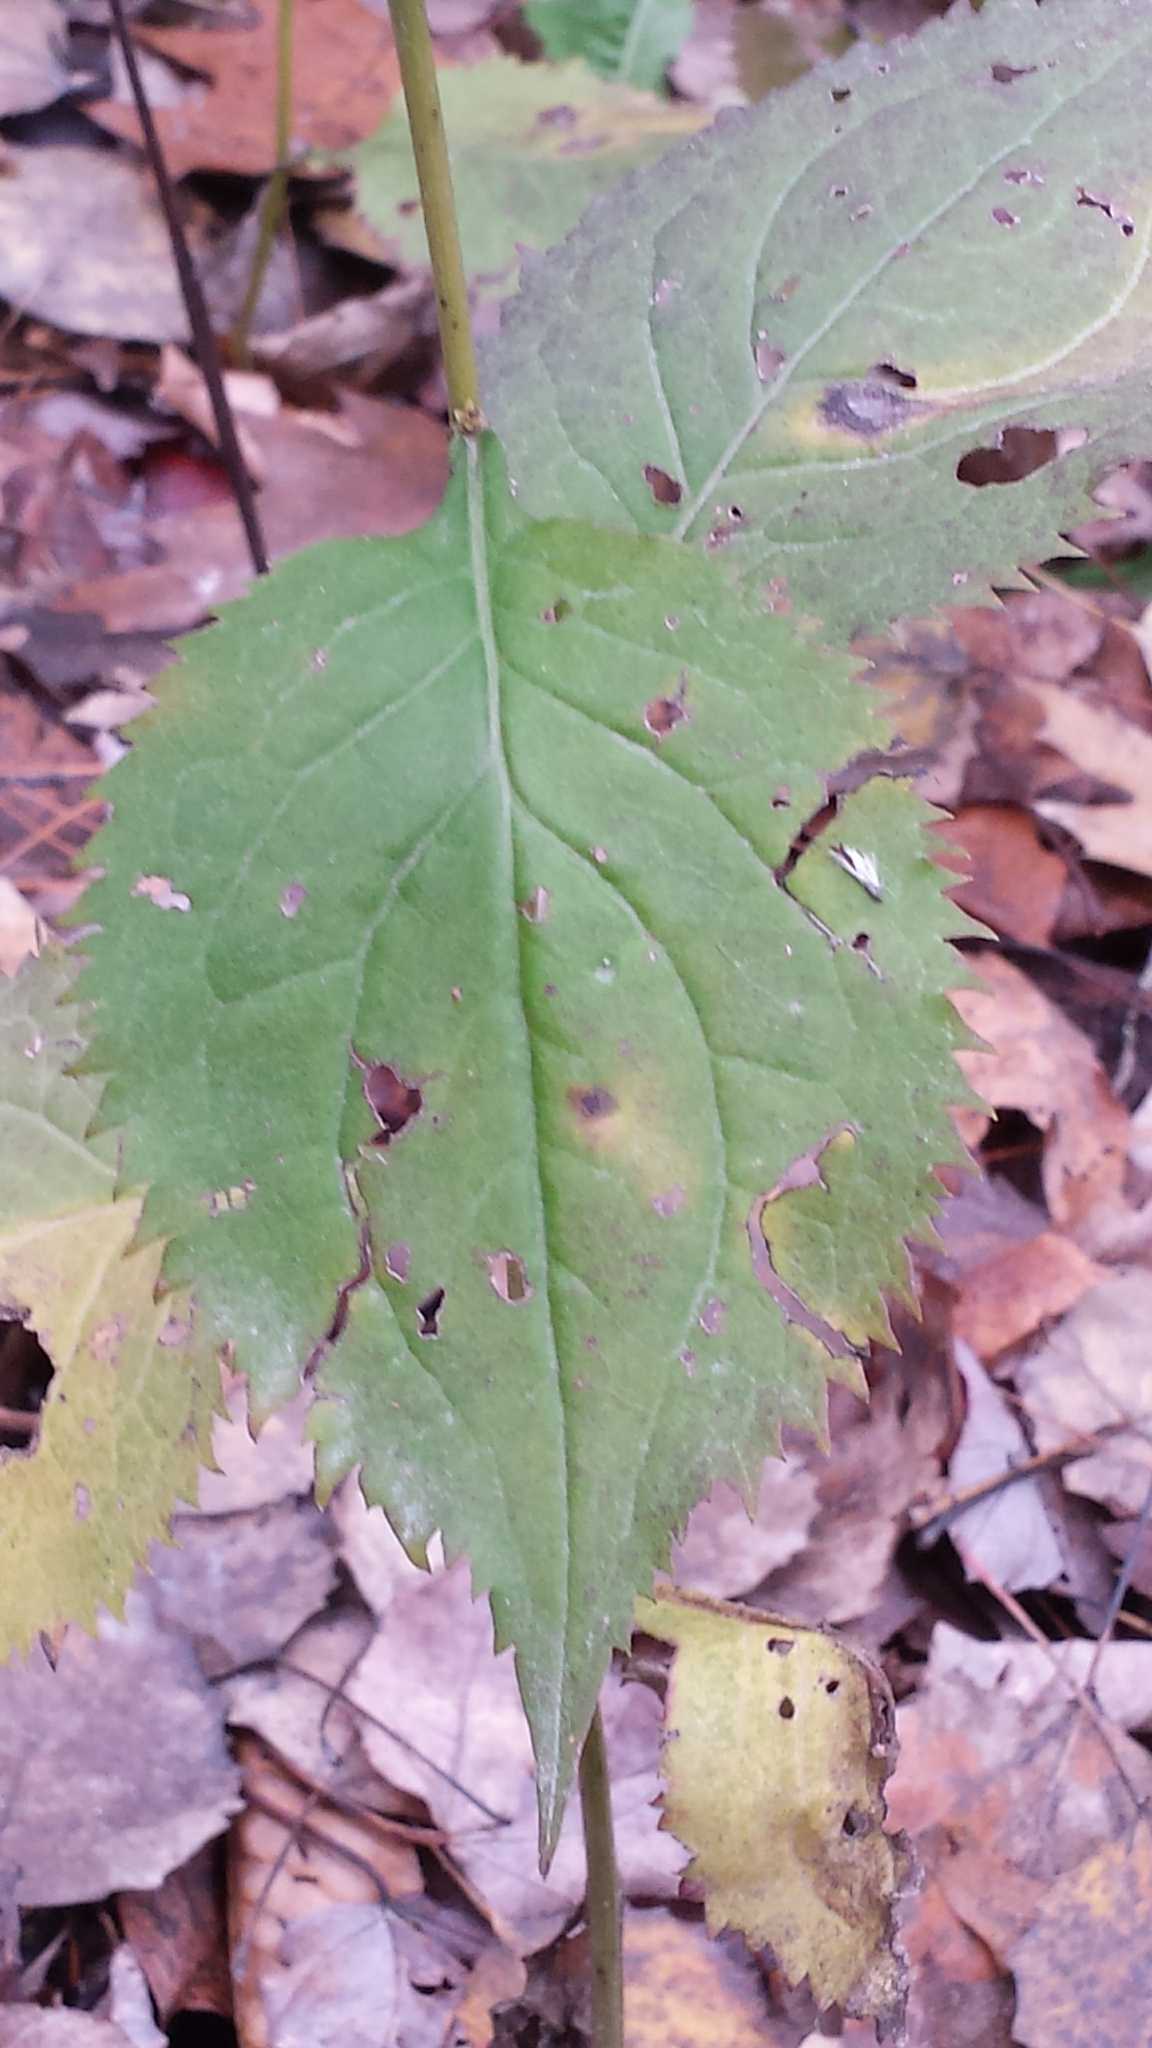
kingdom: Plantae
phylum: Tracheophyta
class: Magnoliopsida
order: Asterales
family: Asteraceae
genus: Solidago
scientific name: Solidago flexicaulis
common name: Zig-zag goldenrod
